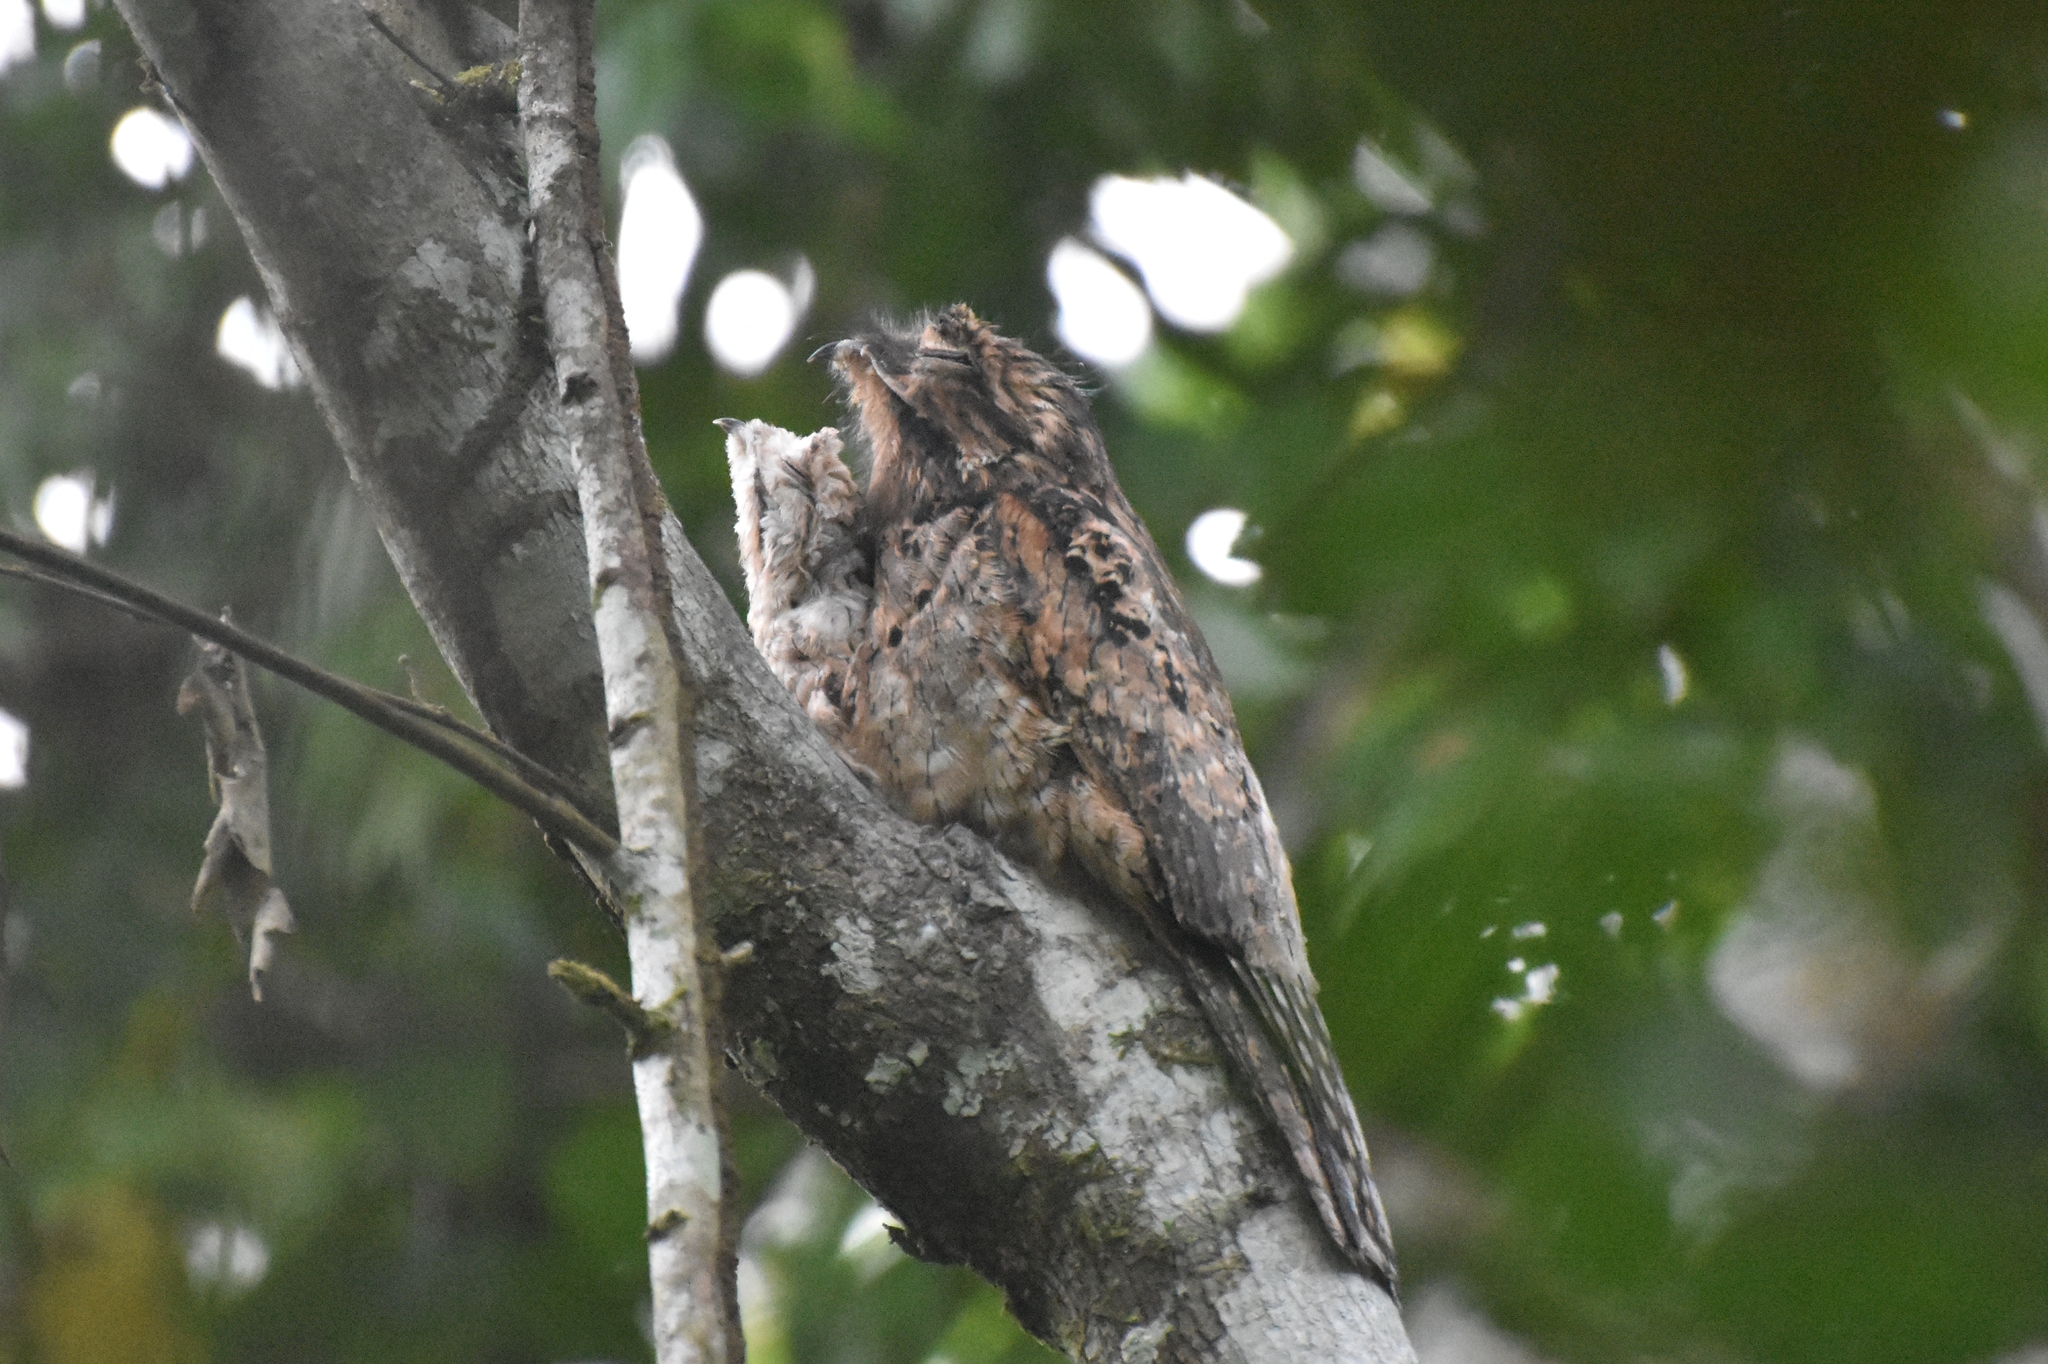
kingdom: Animalia
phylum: Chordata
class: Aves
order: Nyctibiiformes
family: Nyctibiidae
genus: Nyctibius
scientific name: Nyctibius griseus
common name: Common potoo
